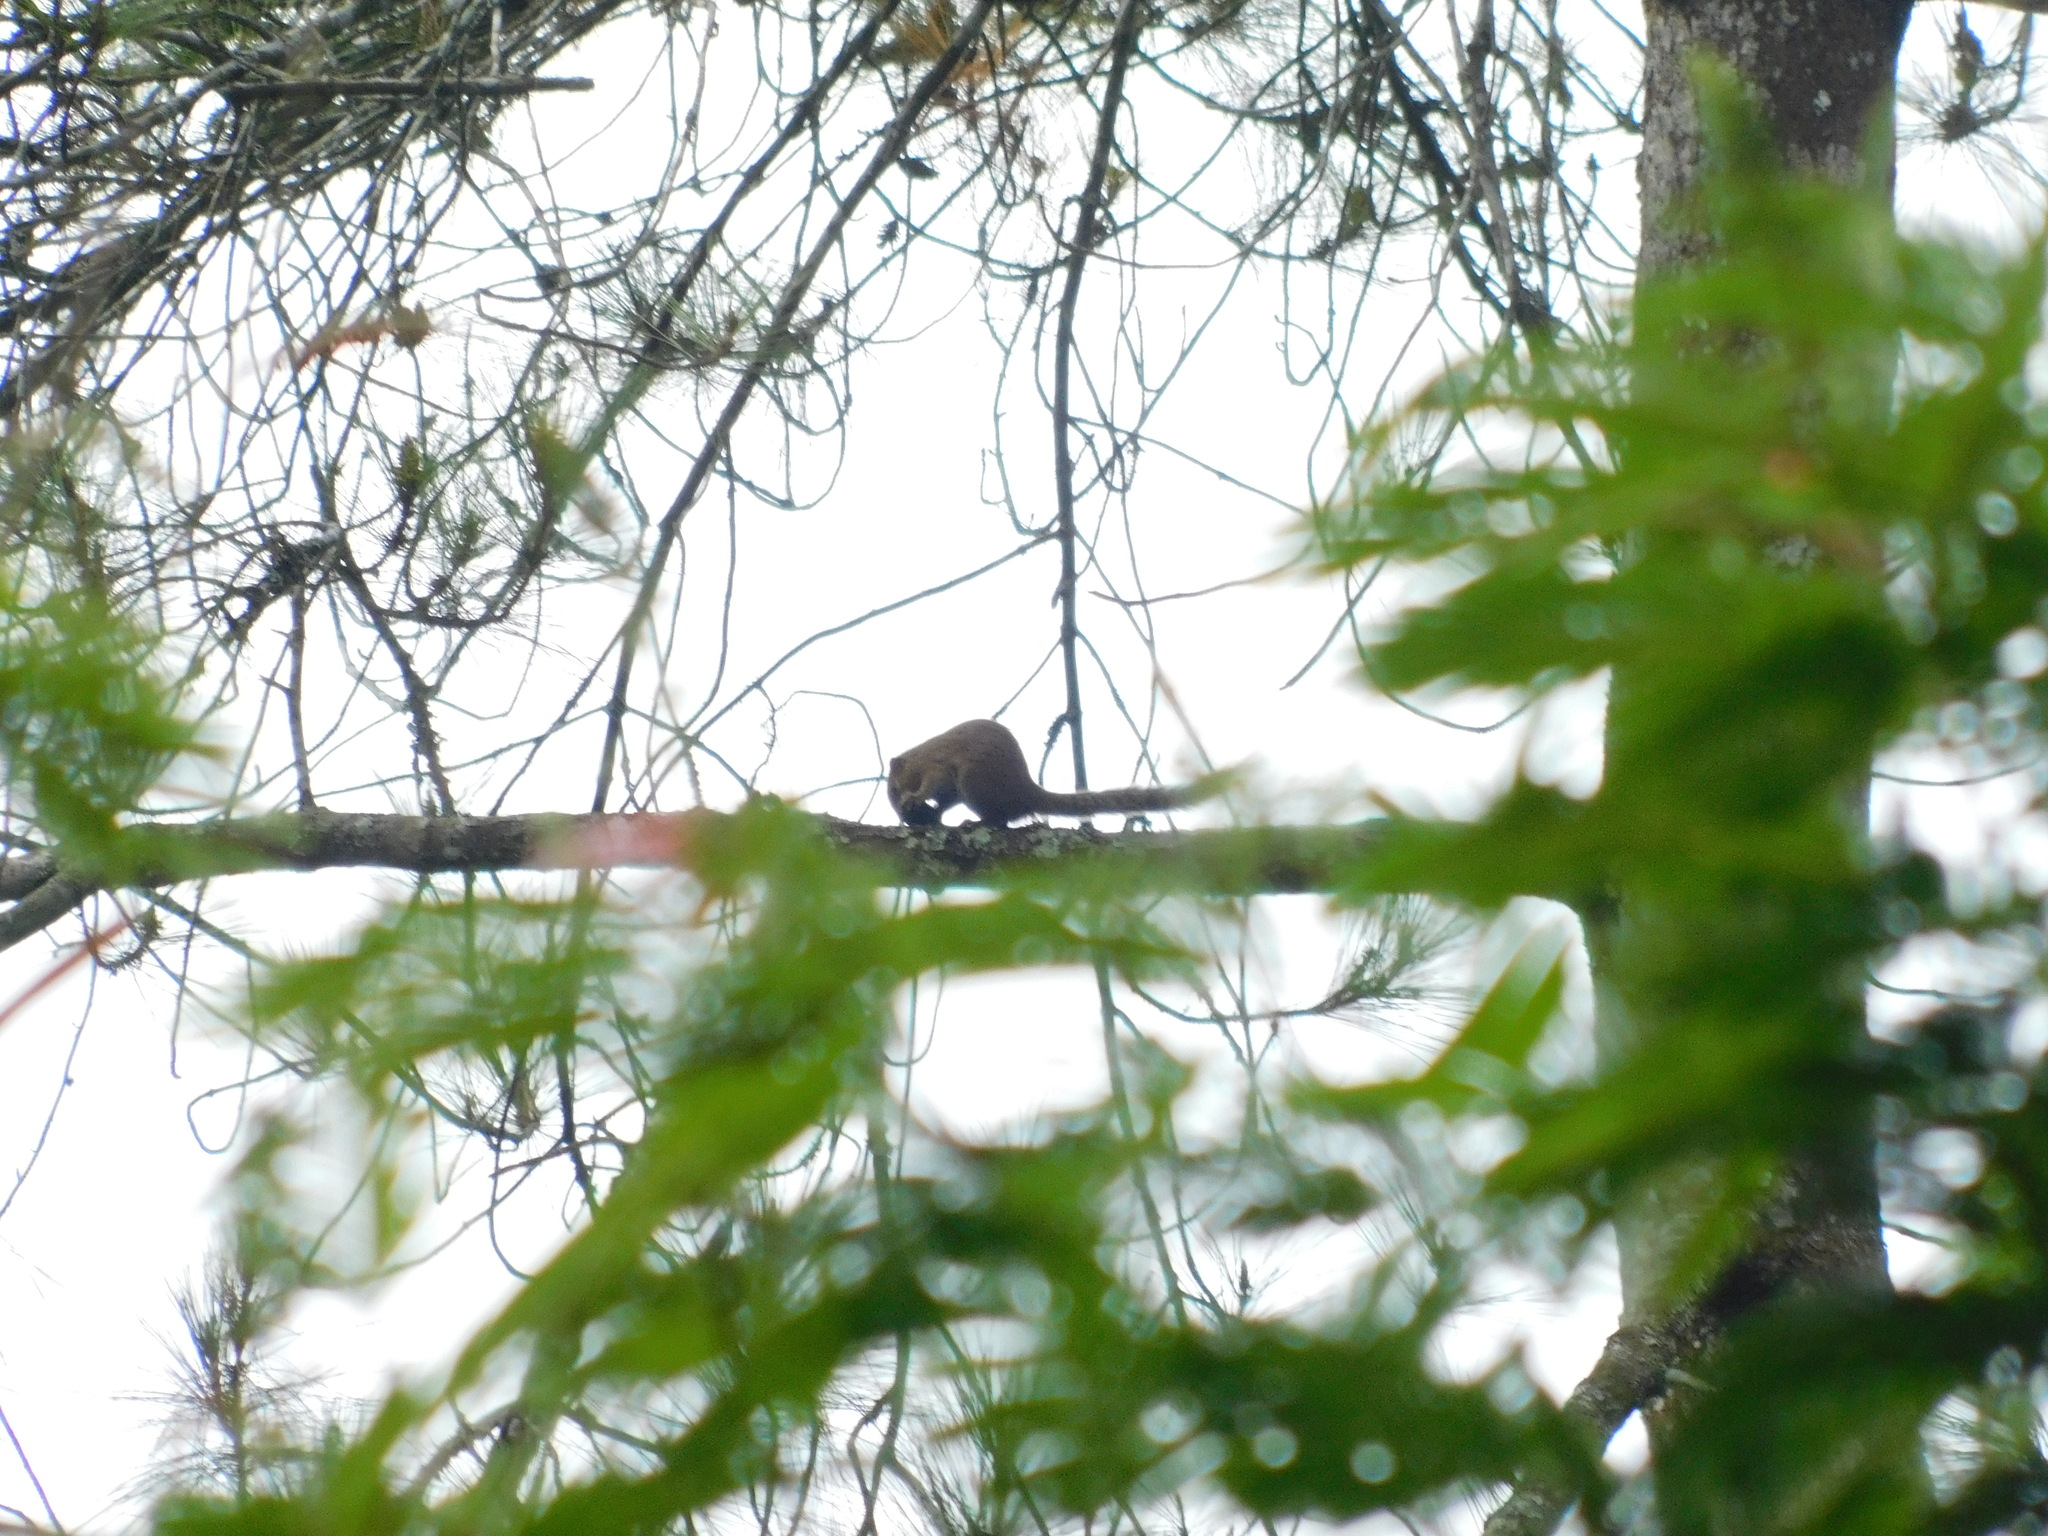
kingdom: Animalia
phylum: Chordata
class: Mammalia
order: Rodentia
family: Sciuridae
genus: Callosciurus
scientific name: Callosciurus notatus
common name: Plantain squirrel
